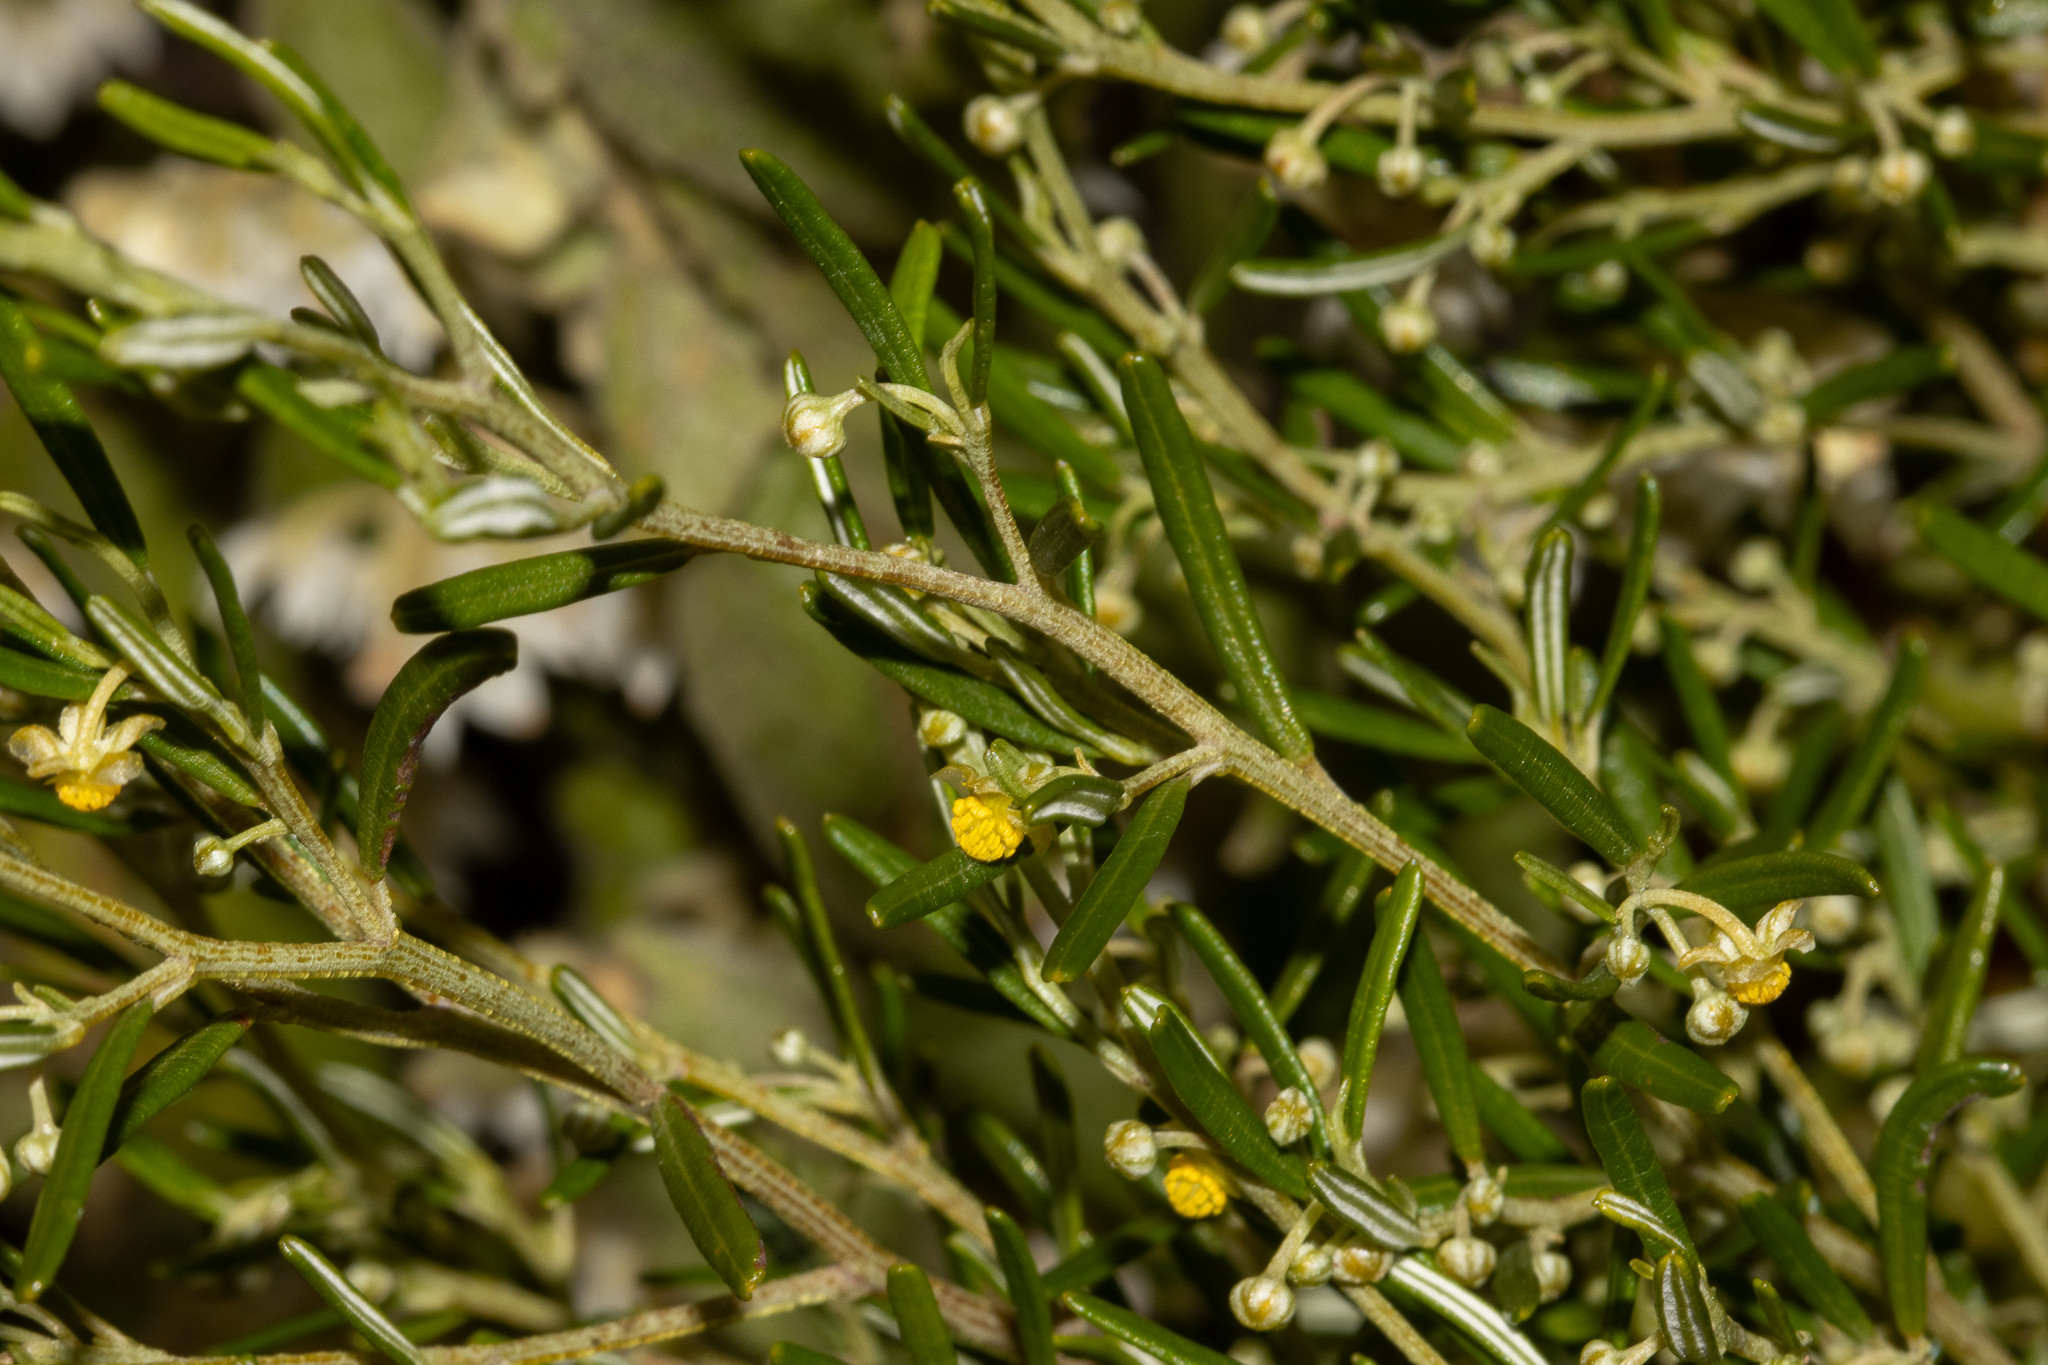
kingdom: Plantae
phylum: Tracheophyta
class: Magnoliopsida
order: Malpighiales
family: Euphorbiaceae
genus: Beyeria
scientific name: Beyeria lechenaultii
